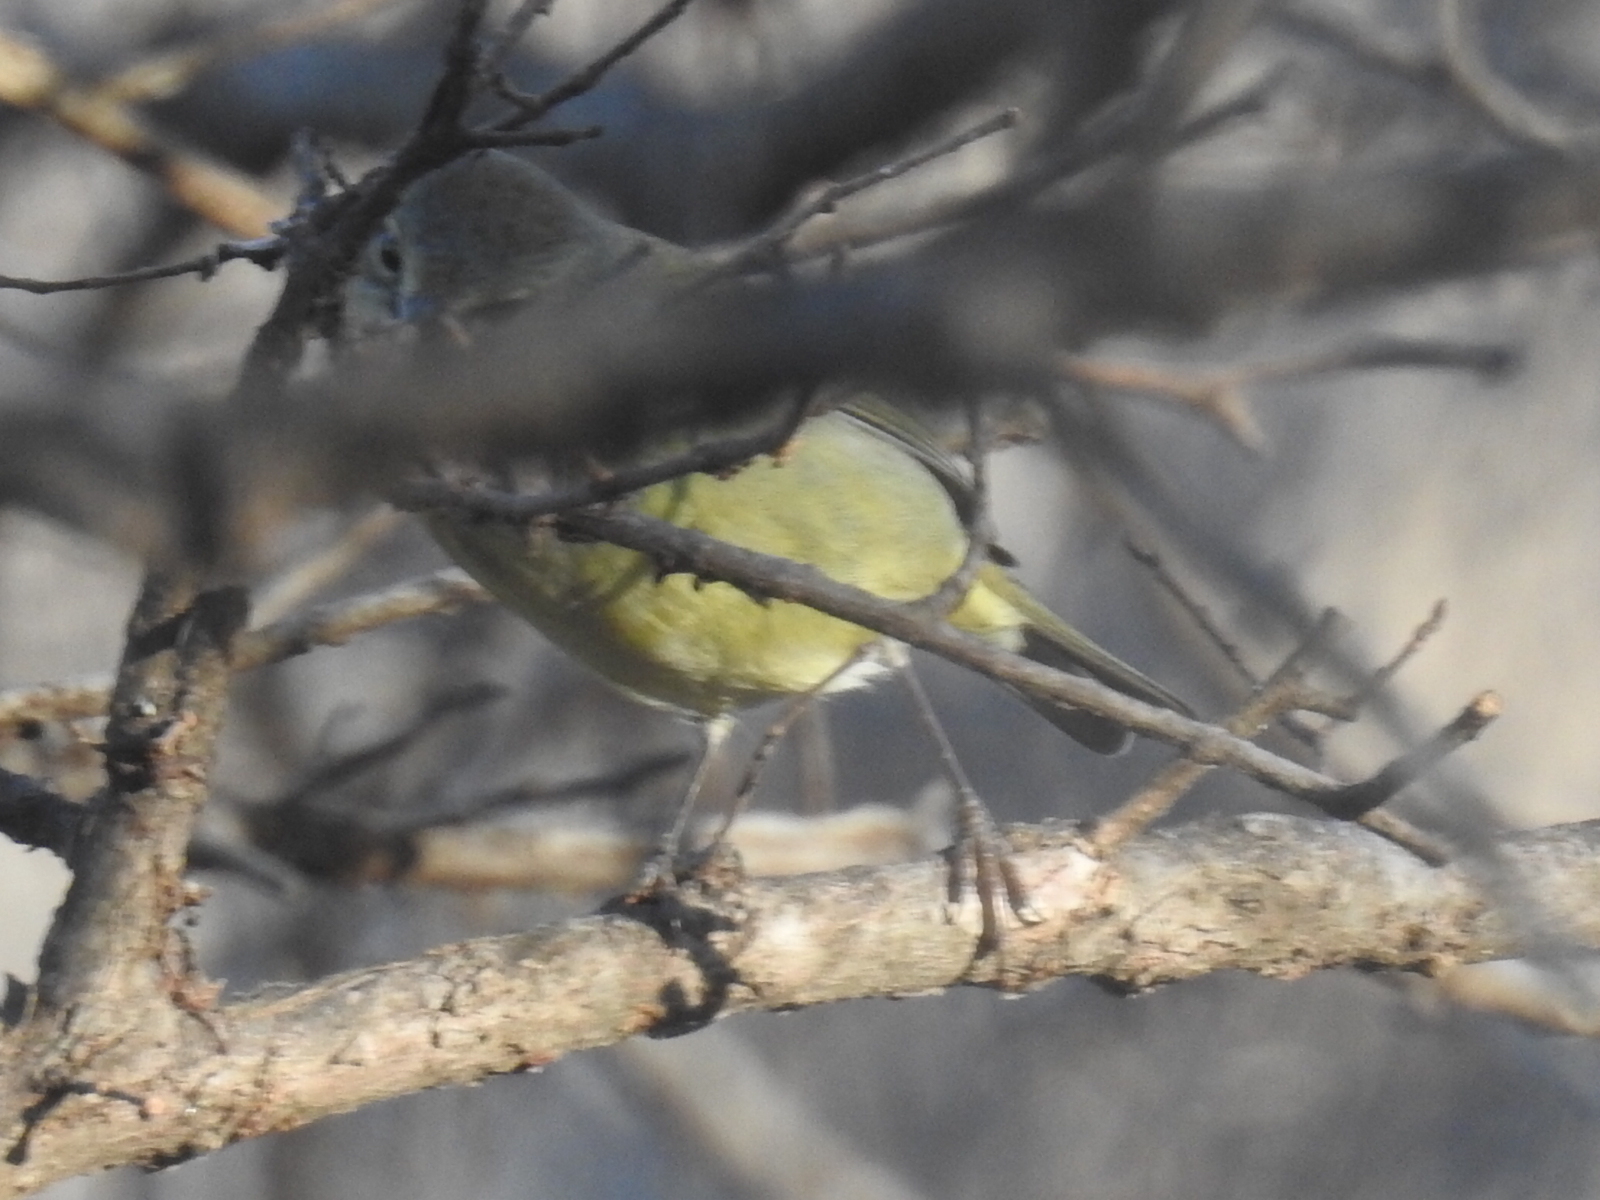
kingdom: Animalia
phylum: Chordata
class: Aves
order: Passeriformes
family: Parulidae
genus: Leiothlypis
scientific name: Leiothlypis celata
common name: Orange-crowned warbler
